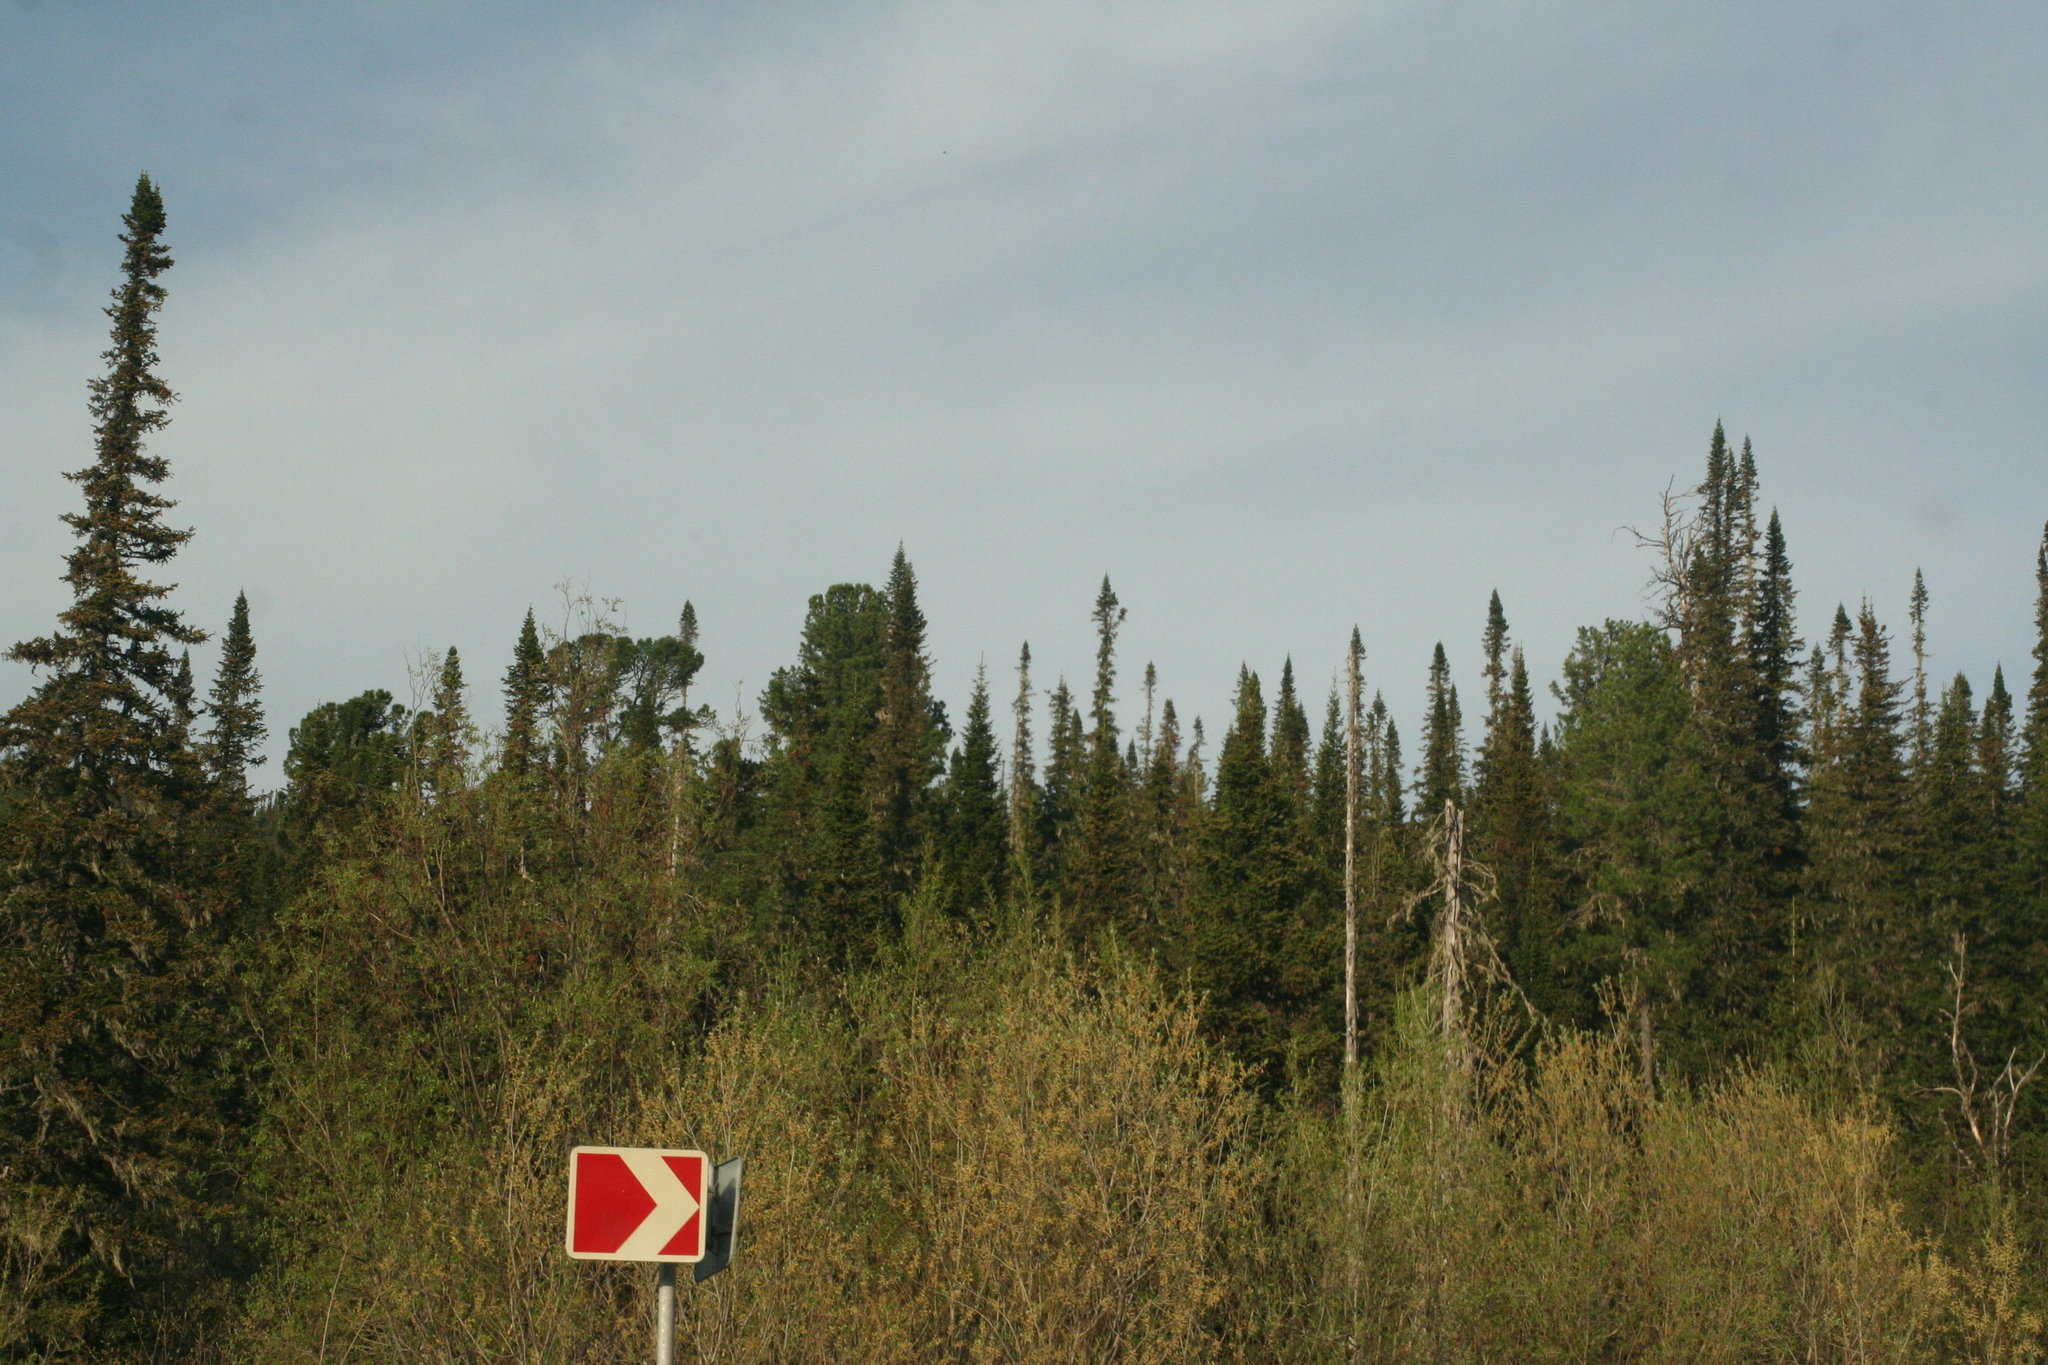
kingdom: Plantae
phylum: Tracheophyta
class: Pinopsida
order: Pinales
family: Pinaceae
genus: Pinus
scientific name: Pinus sibirica
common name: Siberian pine
